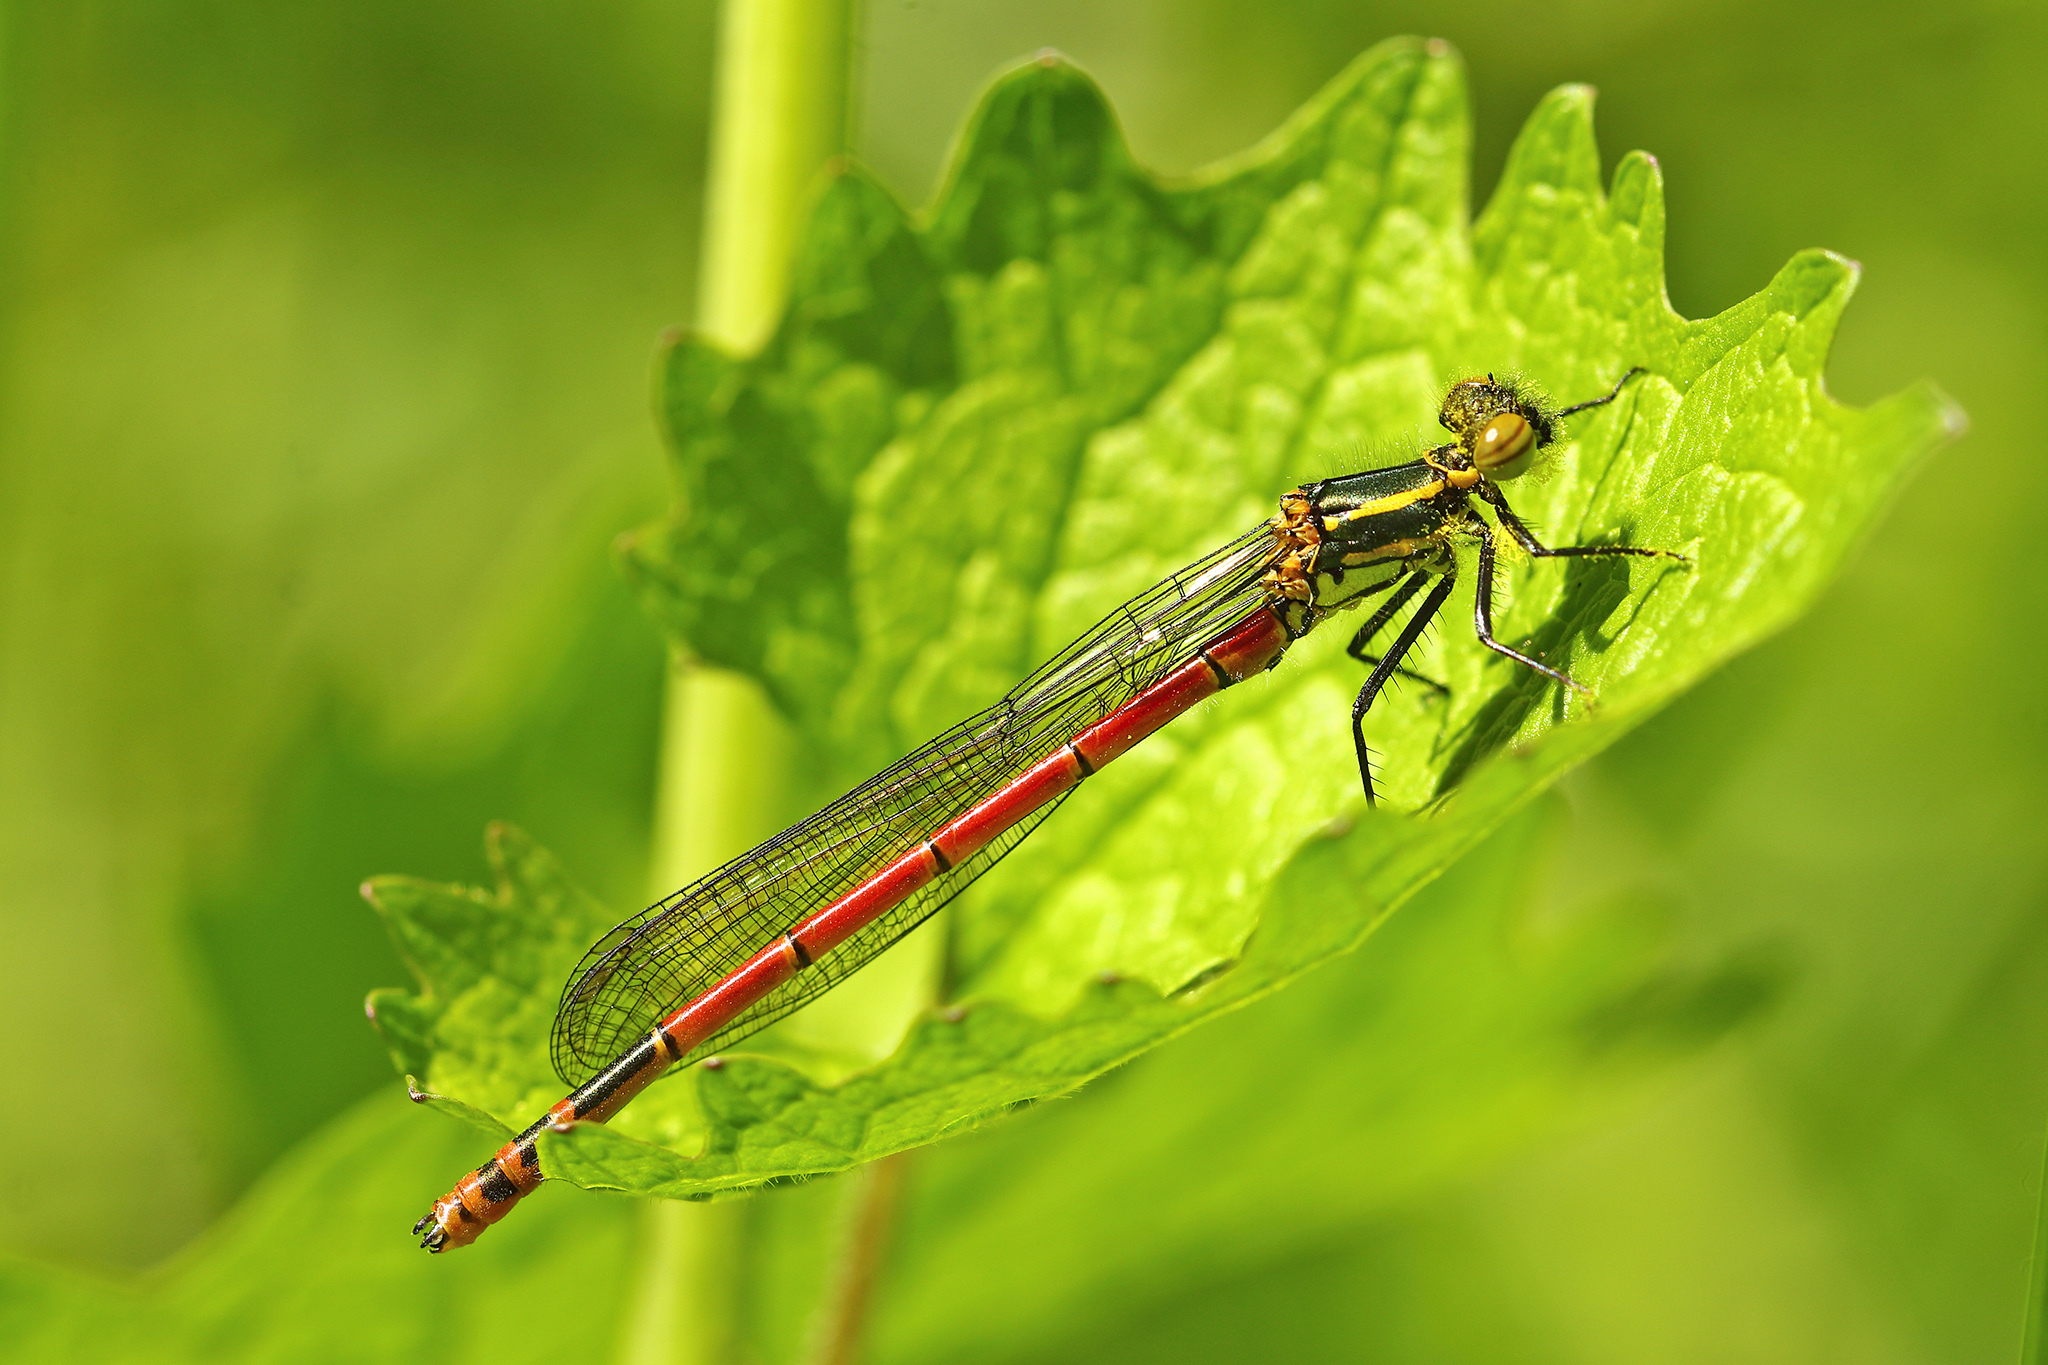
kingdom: Animalia
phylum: Arthropoda
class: Insecta
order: Odonata
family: Coenagrionidae
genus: Pyrrhosoma
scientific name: Pyrrhosoma nymphula
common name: Large red damsel
